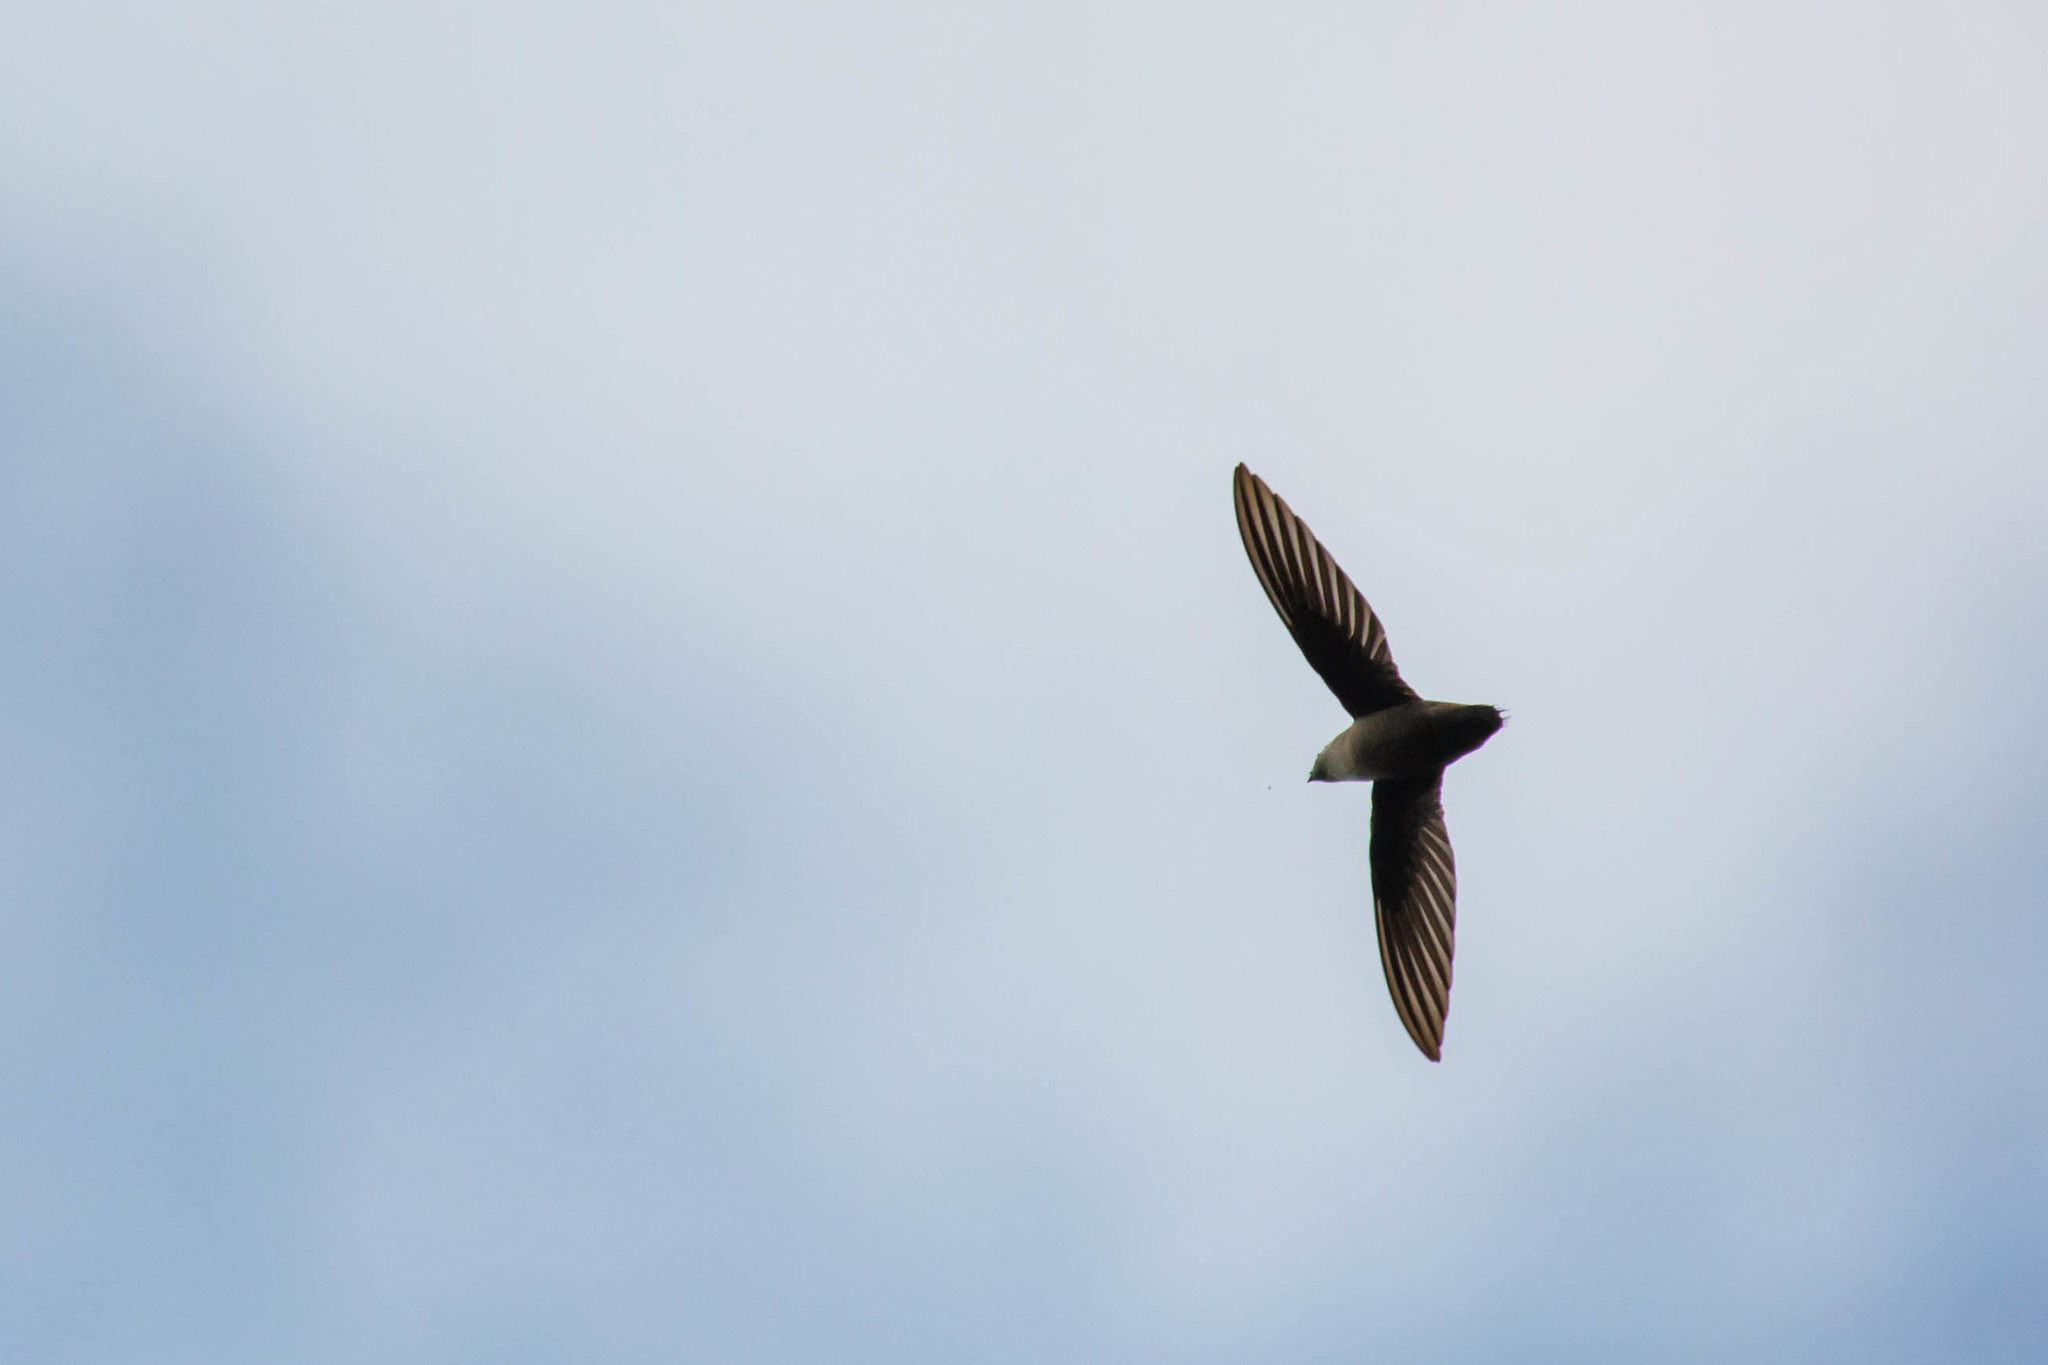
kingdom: Animalia
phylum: Chordata
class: Aves
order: Apodiformes
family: Apodidae
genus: Chaetura
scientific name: Chaetura pelagica
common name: Chimney swift
